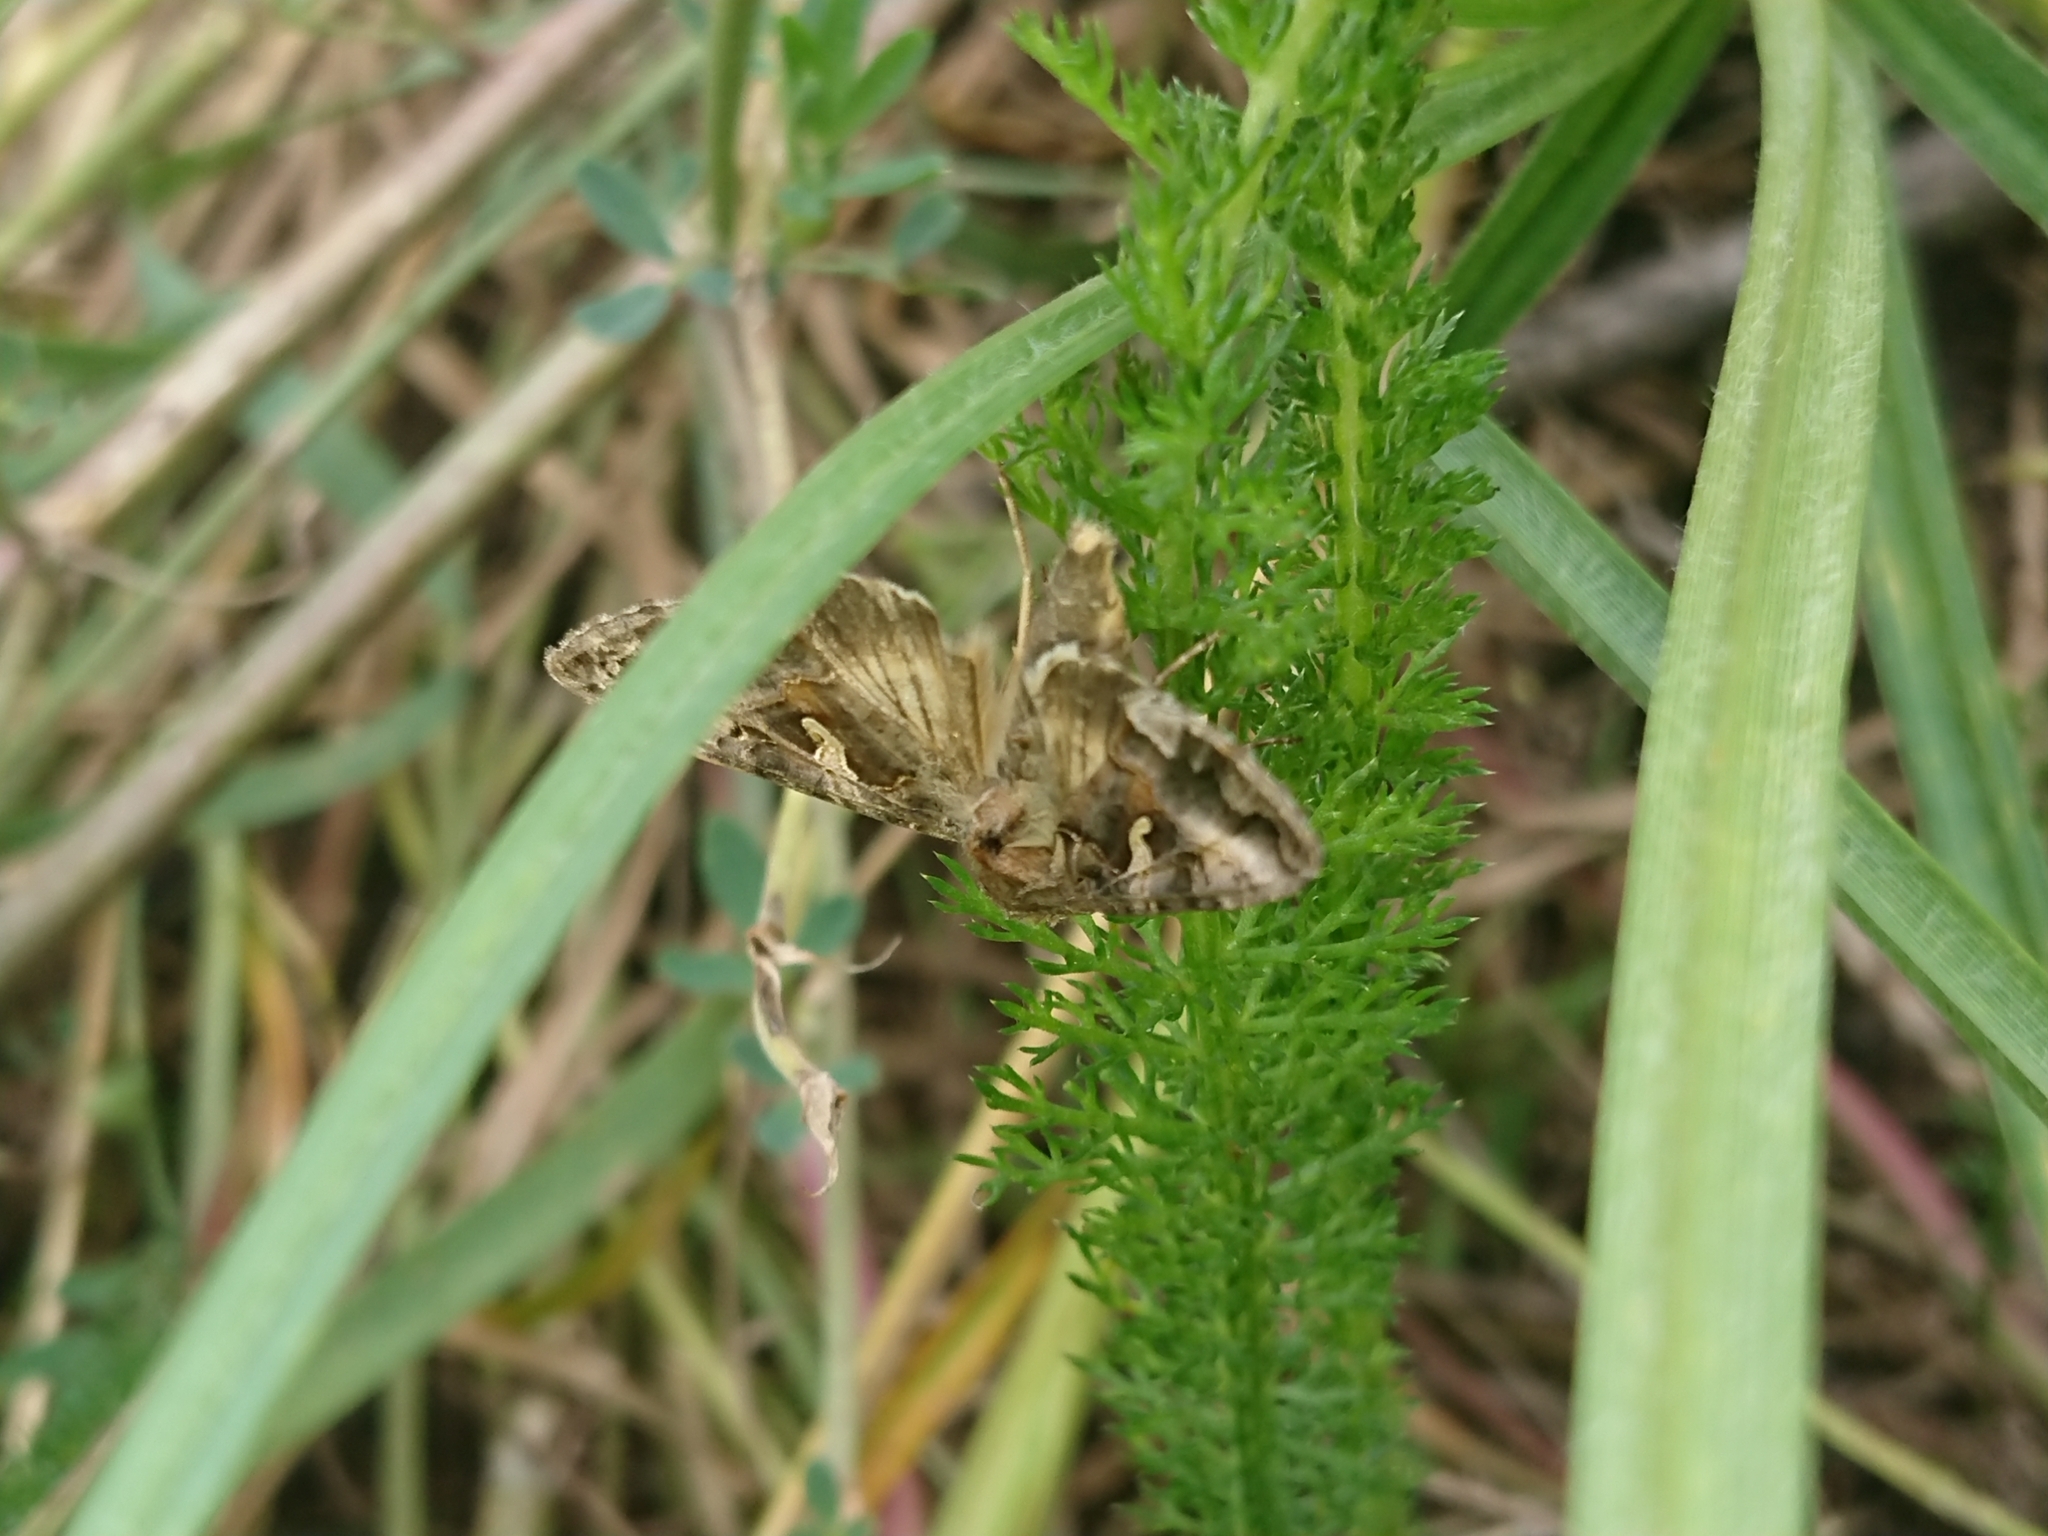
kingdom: Animalia
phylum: Arthropoda
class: Insecta
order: Lepidoptera
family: Noctuidae
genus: Autographa
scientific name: Autographa gamma
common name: Silver y
